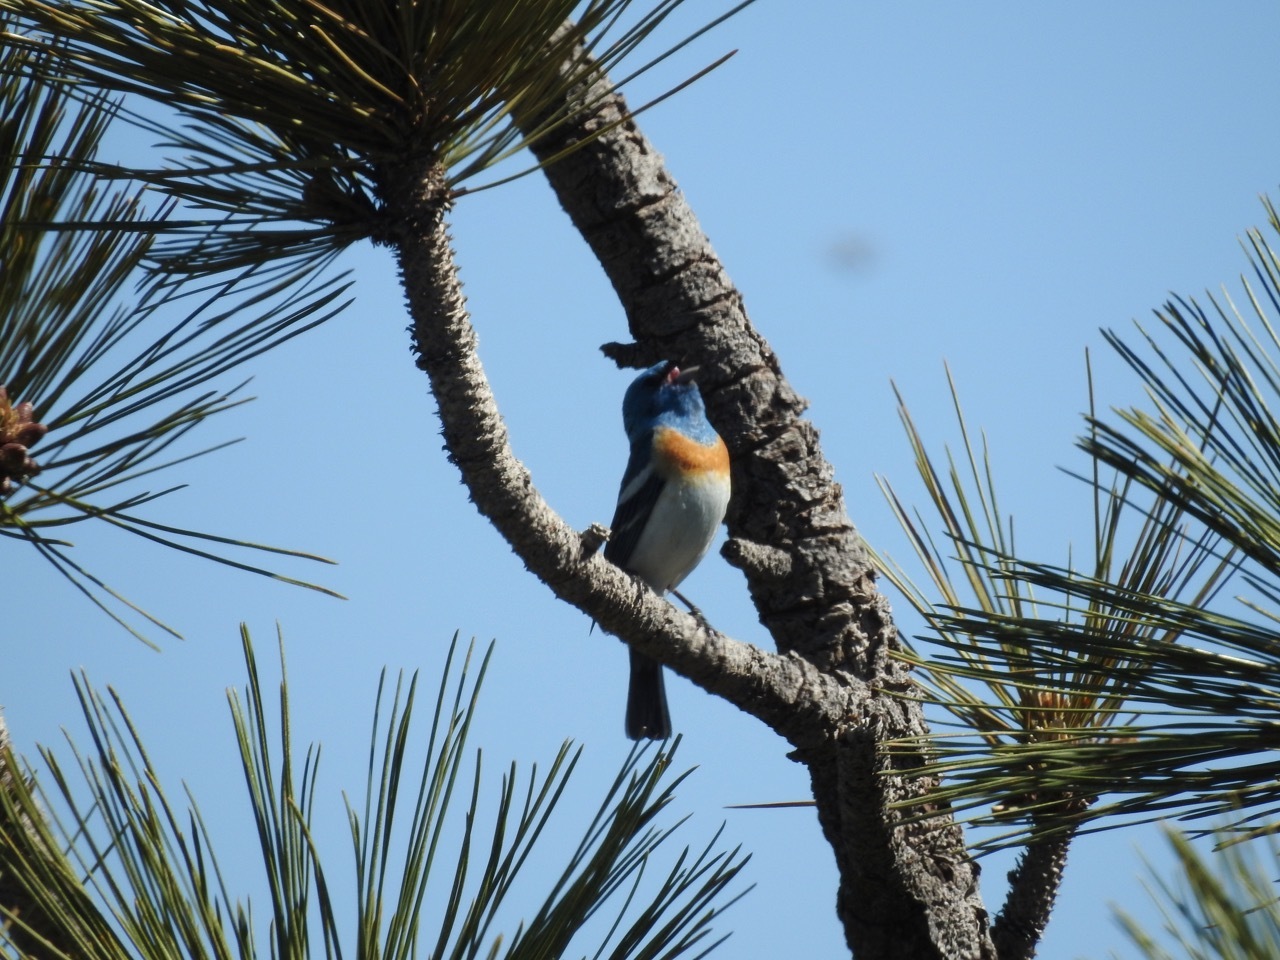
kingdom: Animalia
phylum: Chordata
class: Aves
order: Passeriformes
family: Cardinalidae
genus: Passerina
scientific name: Passerina amoena
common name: Lazuli bunting
